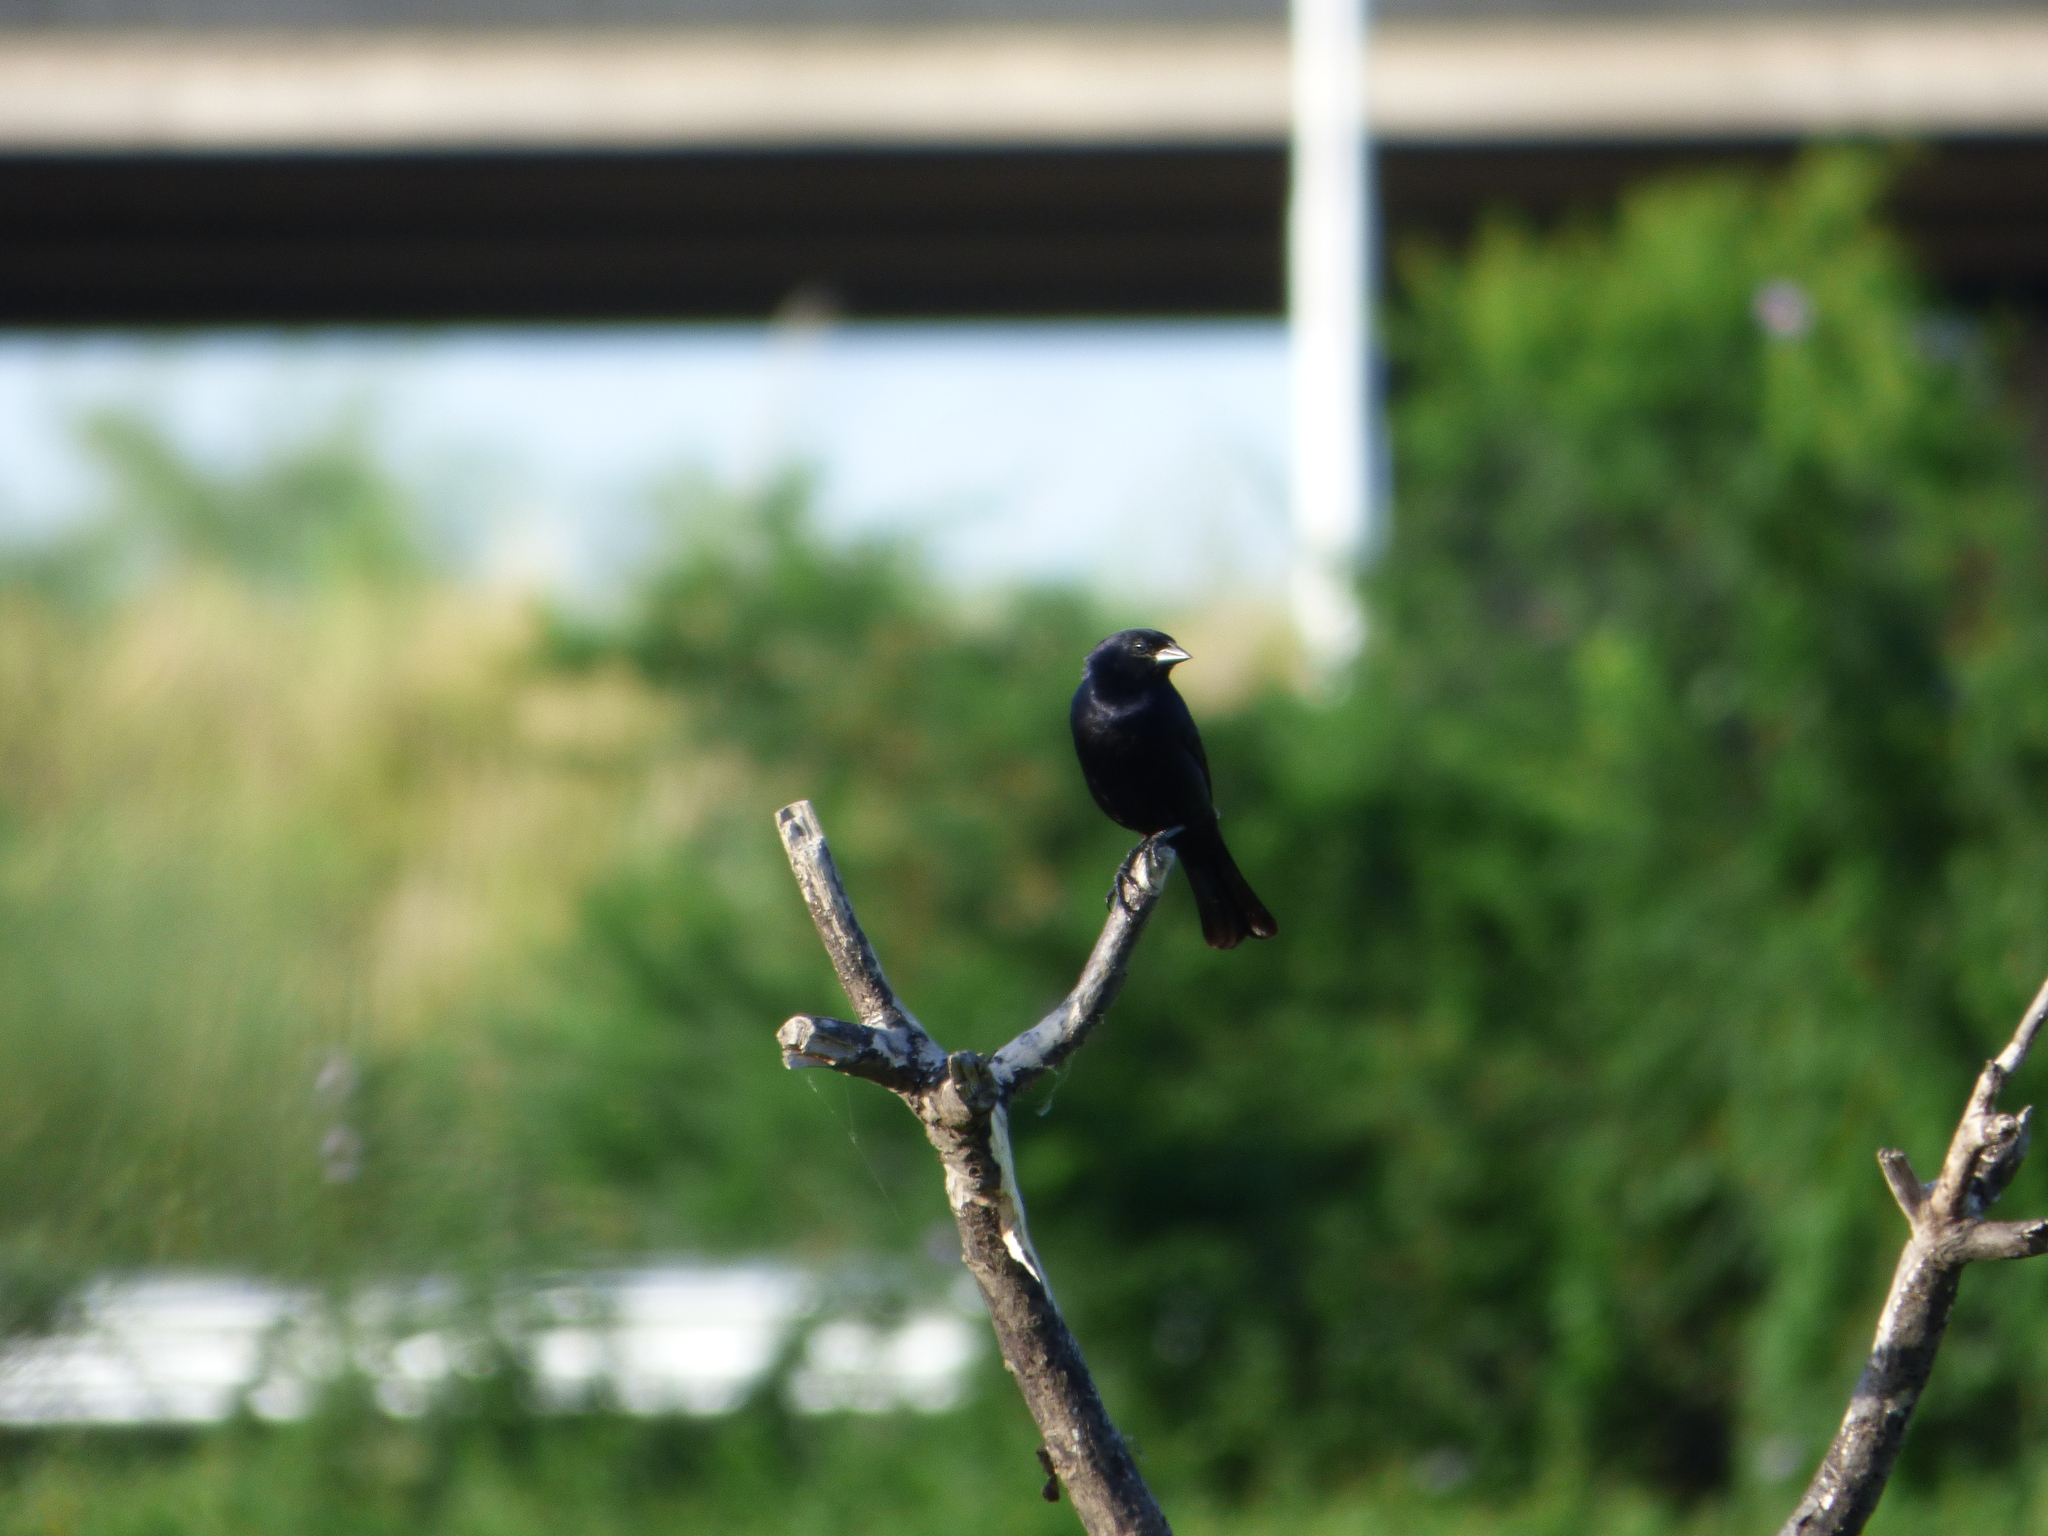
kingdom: Animalia
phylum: Chordata
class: Aves
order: Passeriformes
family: Icteridae
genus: Molothrus
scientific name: Molothrus bonariensis
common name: Shiny cowbird
